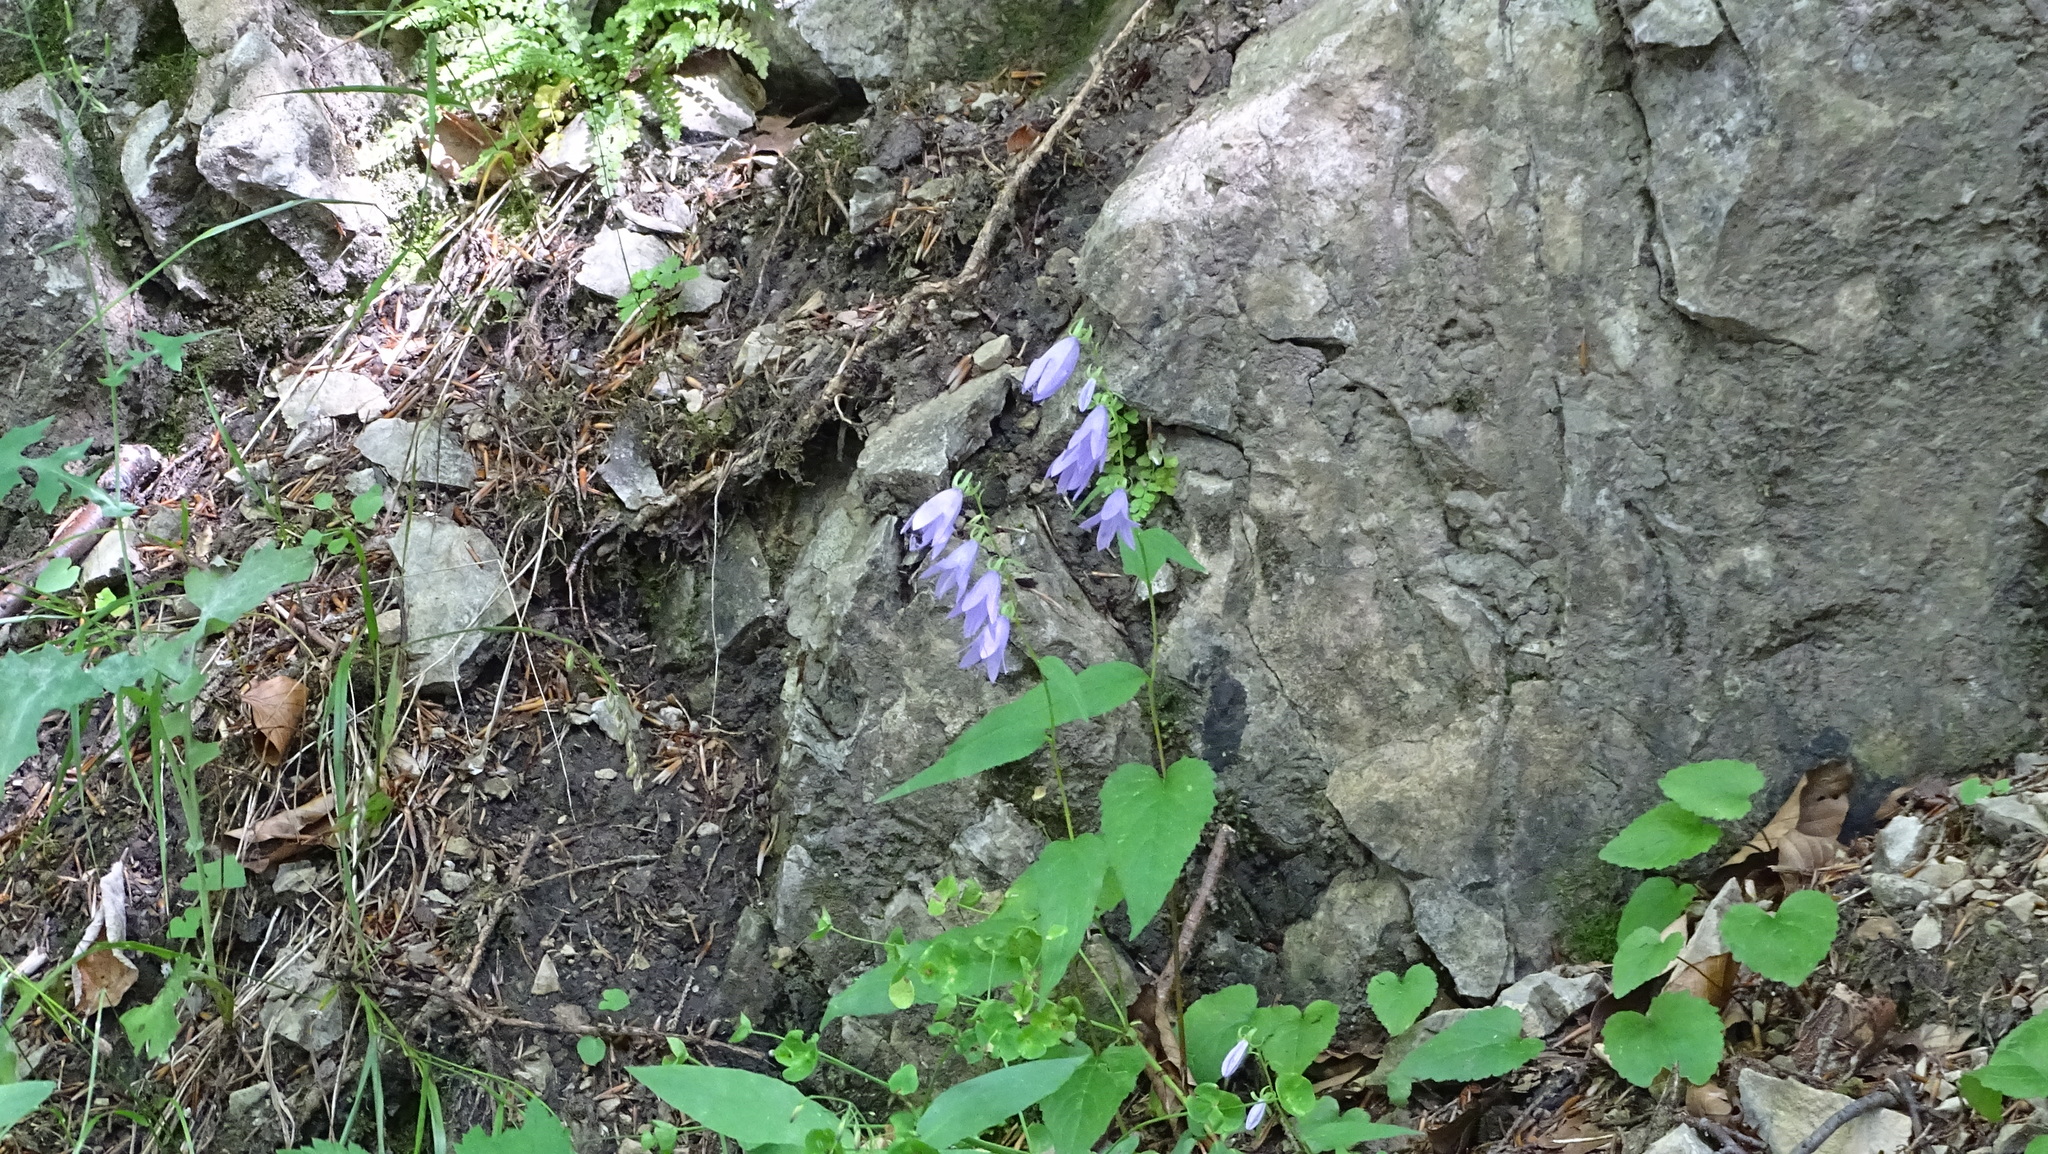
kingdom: Plantae
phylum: Tracheophyta
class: Magnoliopsida
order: Asterales
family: Campanulaceae
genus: Campanula
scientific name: Campanula trachelium
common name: Nettle-leaved bellflower
